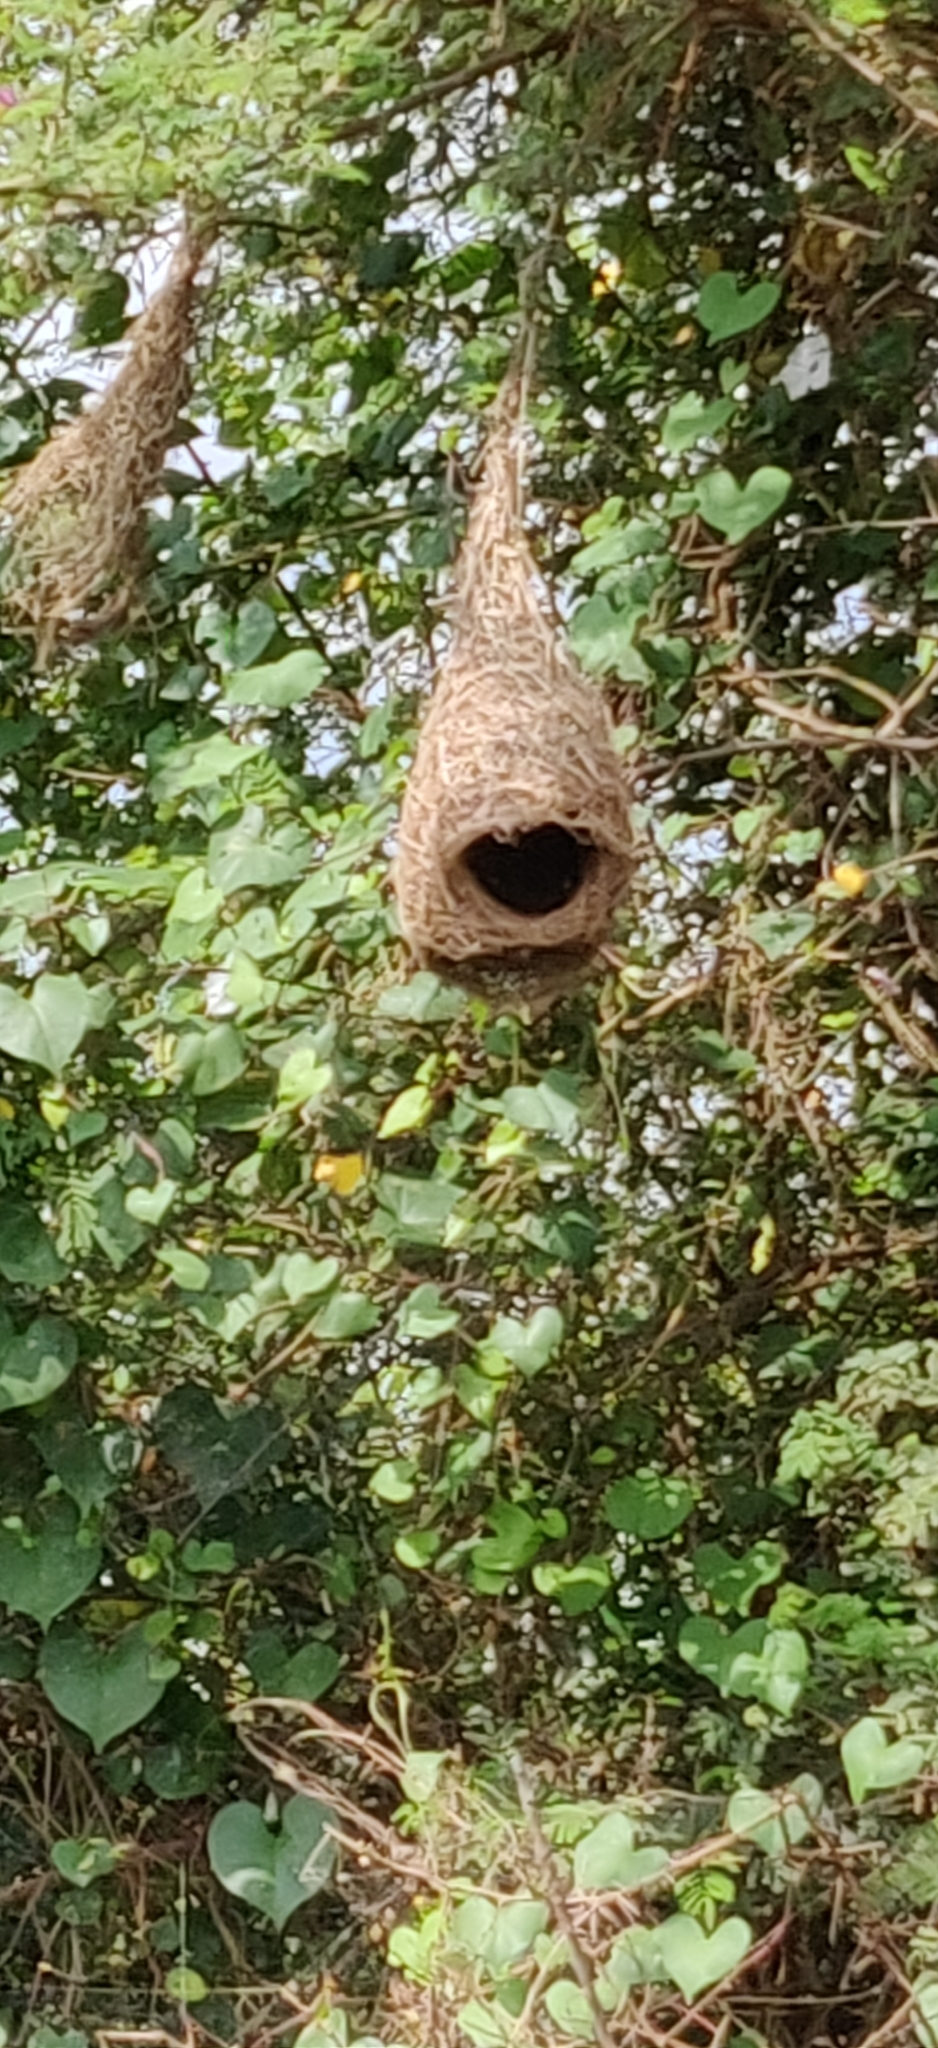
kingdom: Animalia
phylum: Chordata
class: Aves
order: Passeriformes
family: Ploceidae
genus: Ploceus
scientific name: Ploceus philippinus
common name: Baya weaver
